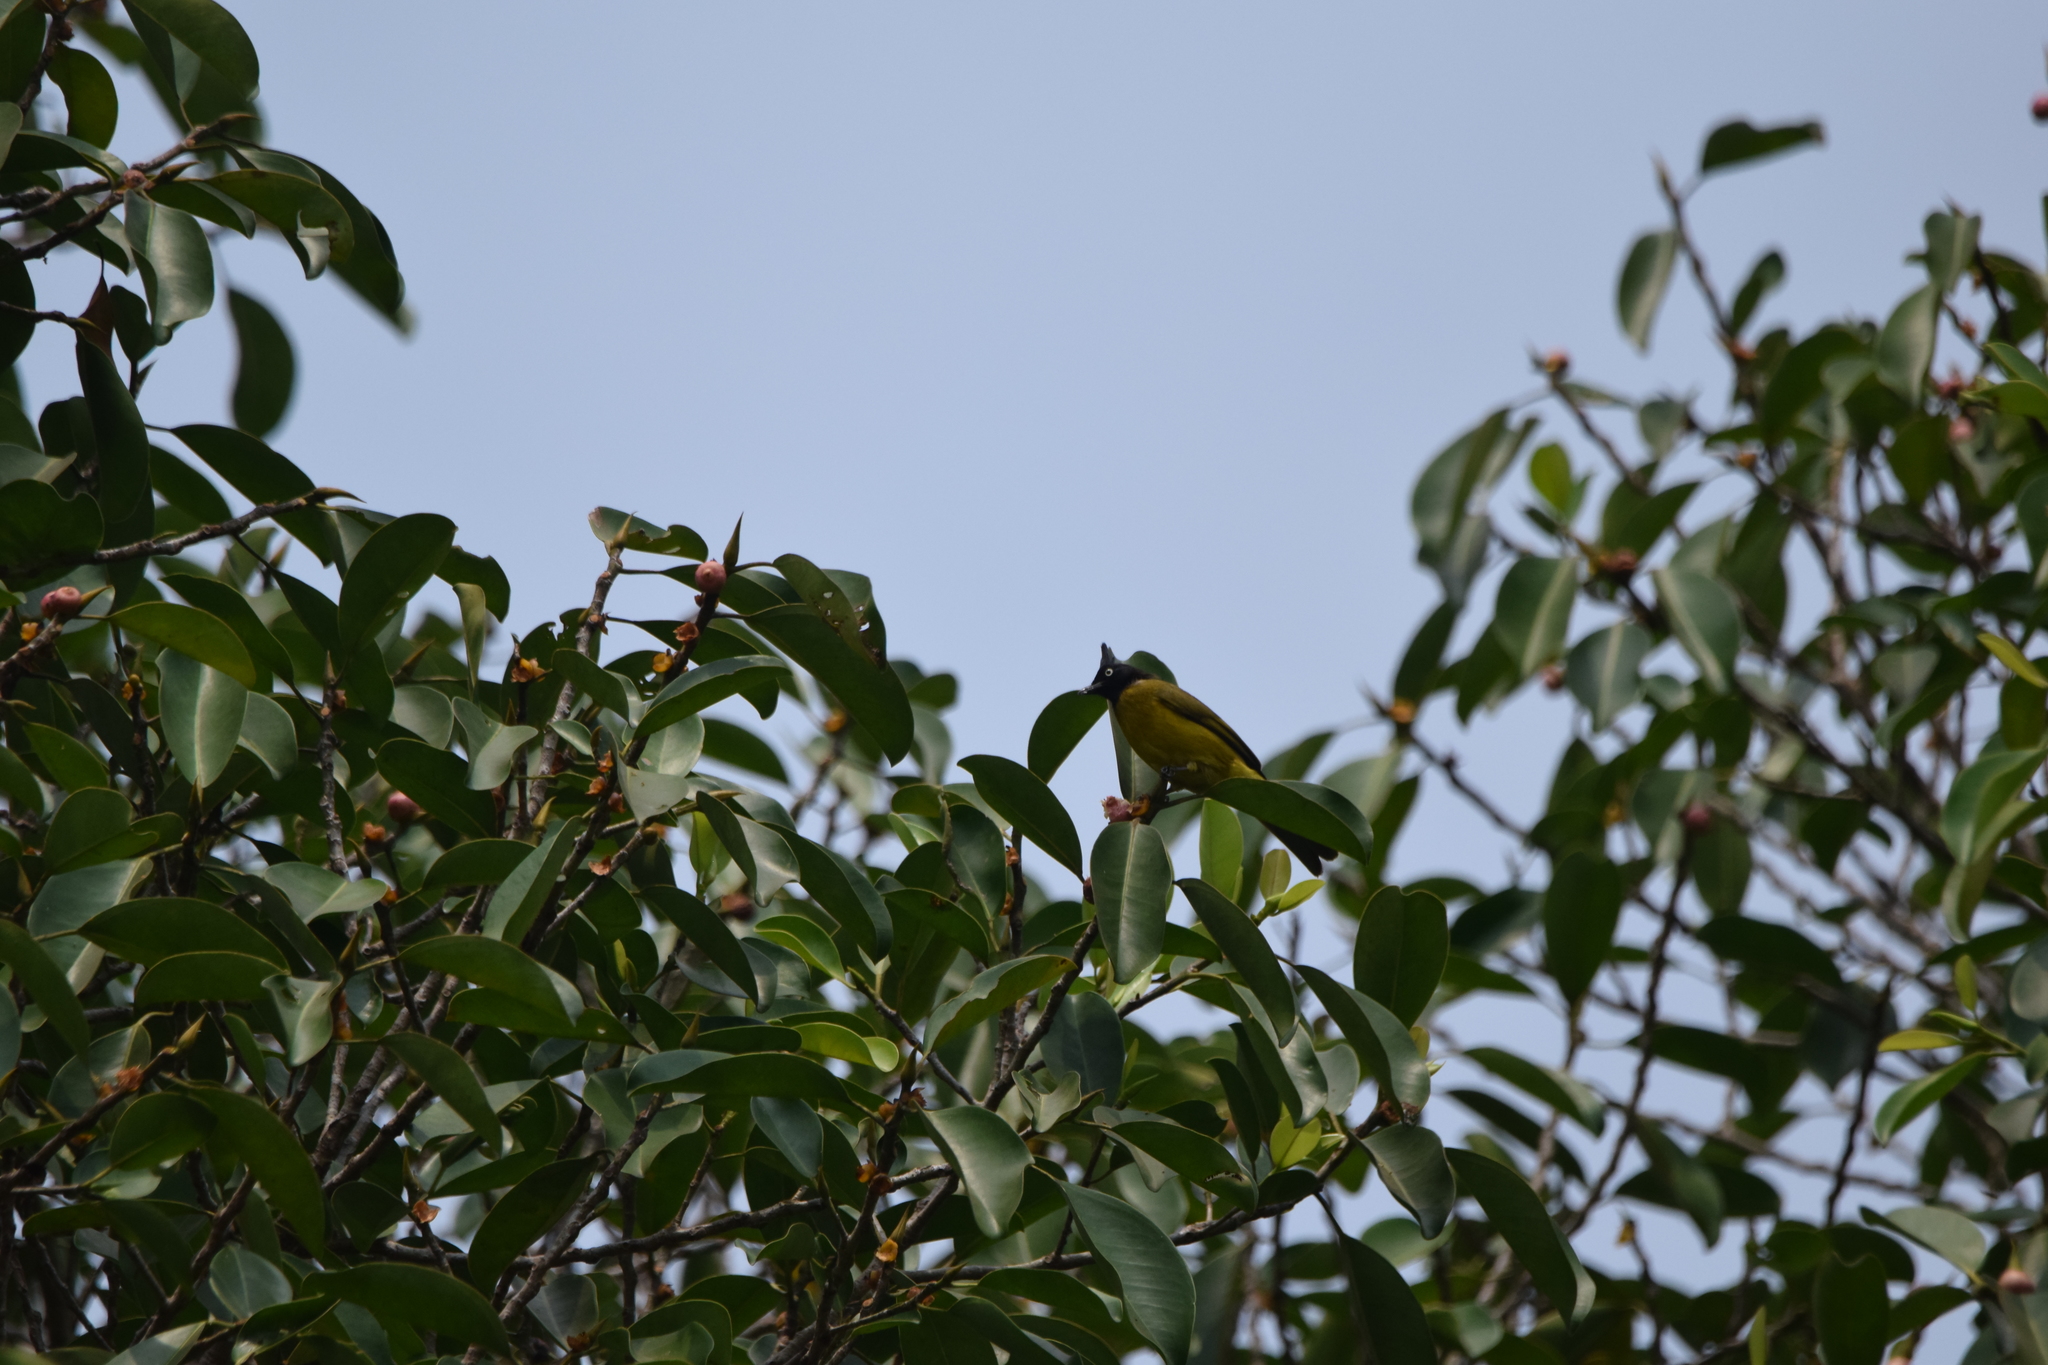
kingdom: Animalia
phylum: Chordata
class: Aves
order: Passeriformes
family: Pycnonotidae
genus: Pycnonotus
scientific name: Pycnonotus flaviventris
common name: Black-crested bulbul
